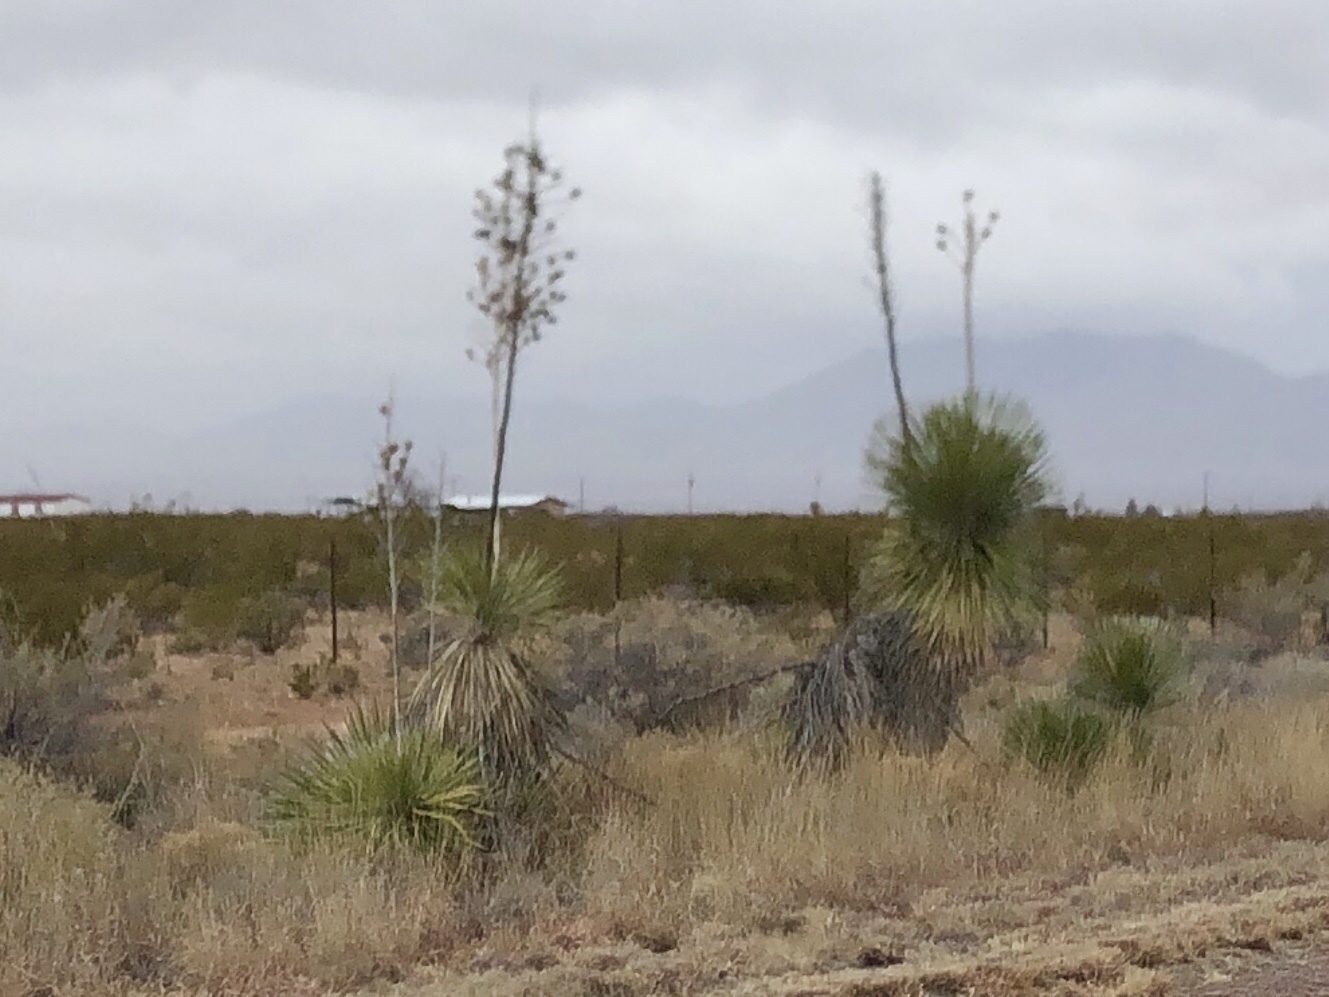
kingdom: Plantae
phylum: Tracheophyta
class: Liliopsida
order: Asparagales
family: Asparagaceae
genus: Yucca
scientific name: Yucca elata
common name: Palmella
